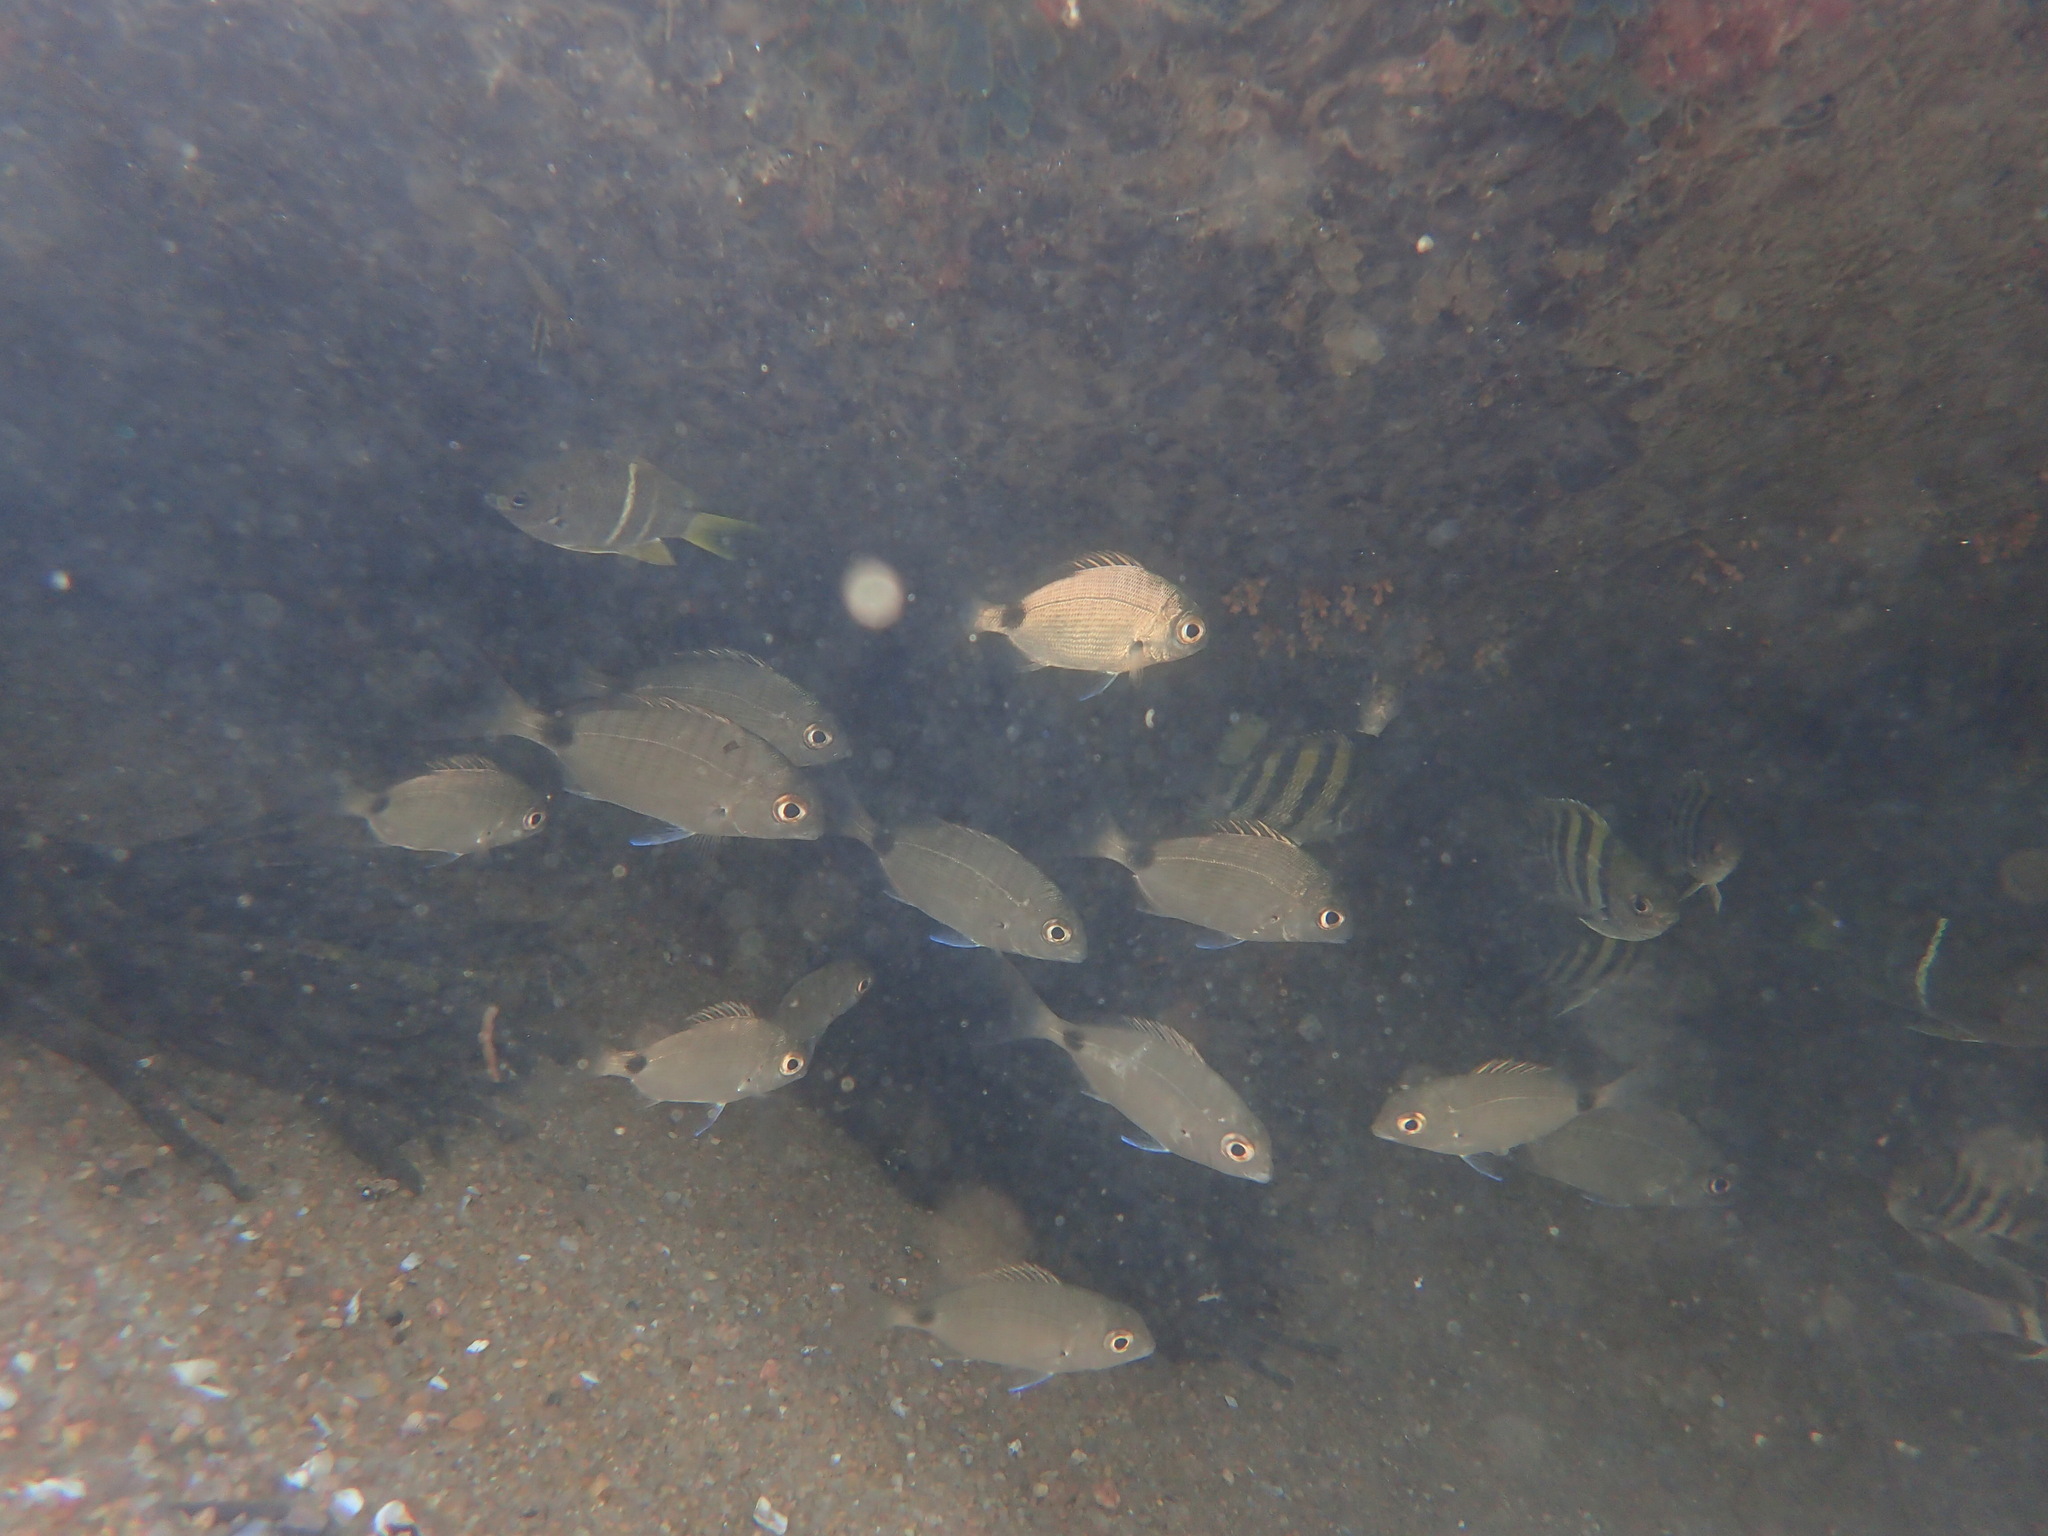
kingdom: Animalia
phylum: Chordata
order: Perciformes
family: Sparidae
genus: Diplodus
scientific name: Diplodus capensis
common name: Blacktail
